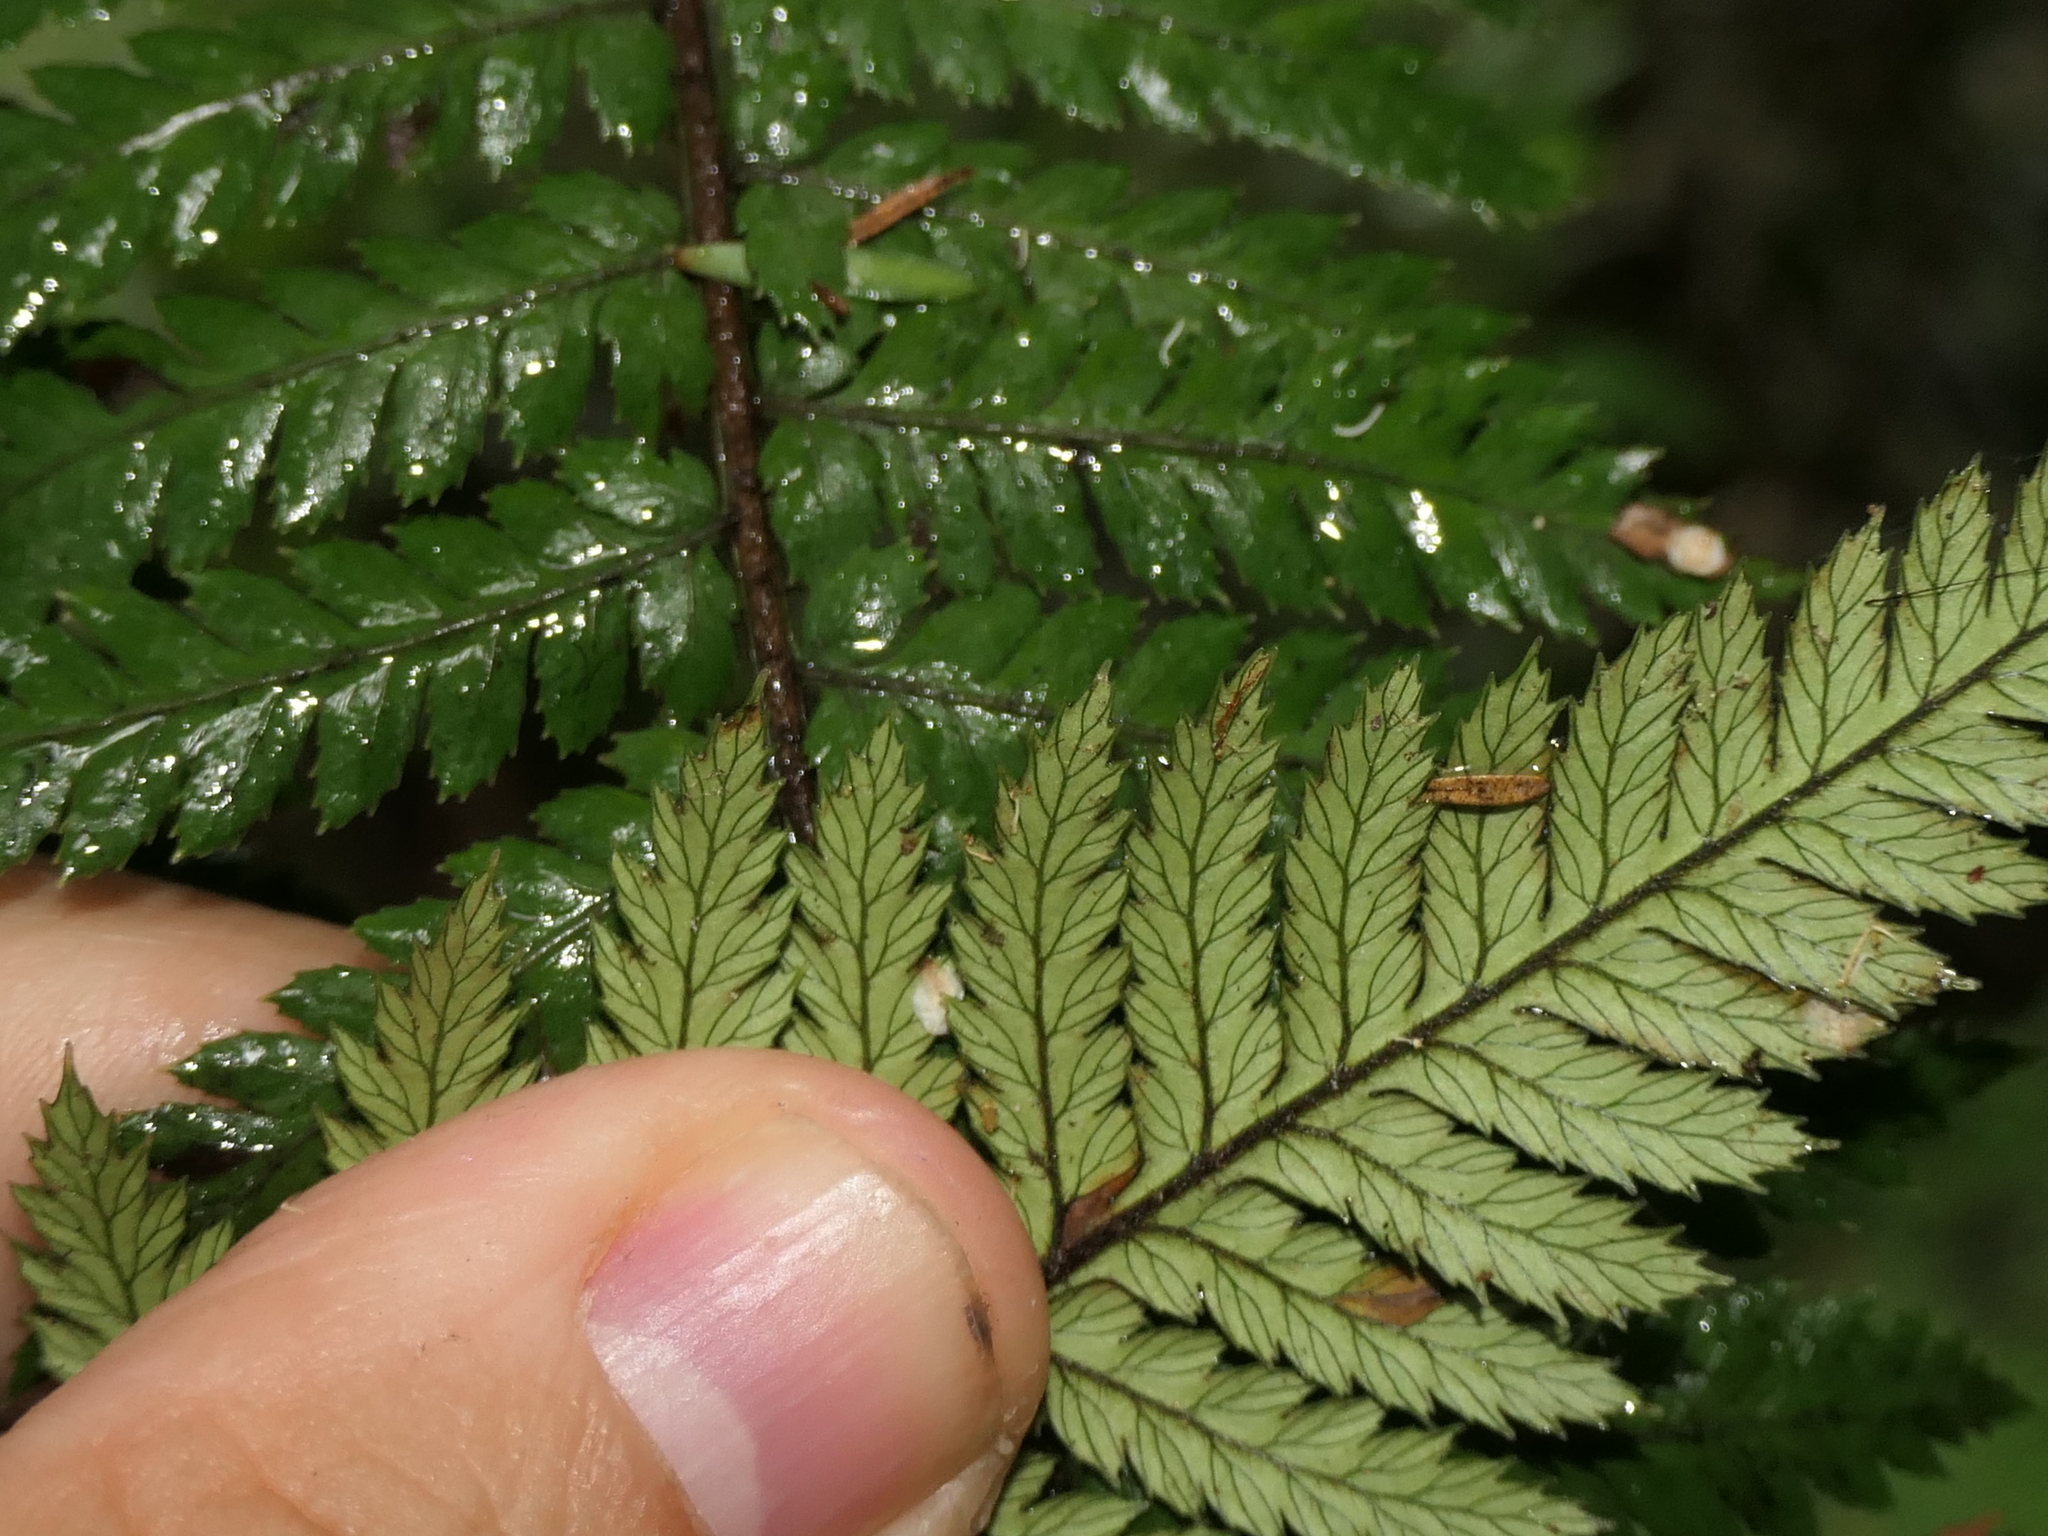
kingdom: Plantae
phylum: Tracheophyta
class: Polypodiopsida
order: Cyatheales
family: Dicksoniaceae
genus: Dicksonia
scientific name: Dicksonia squarrosa
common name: Hard treefern
